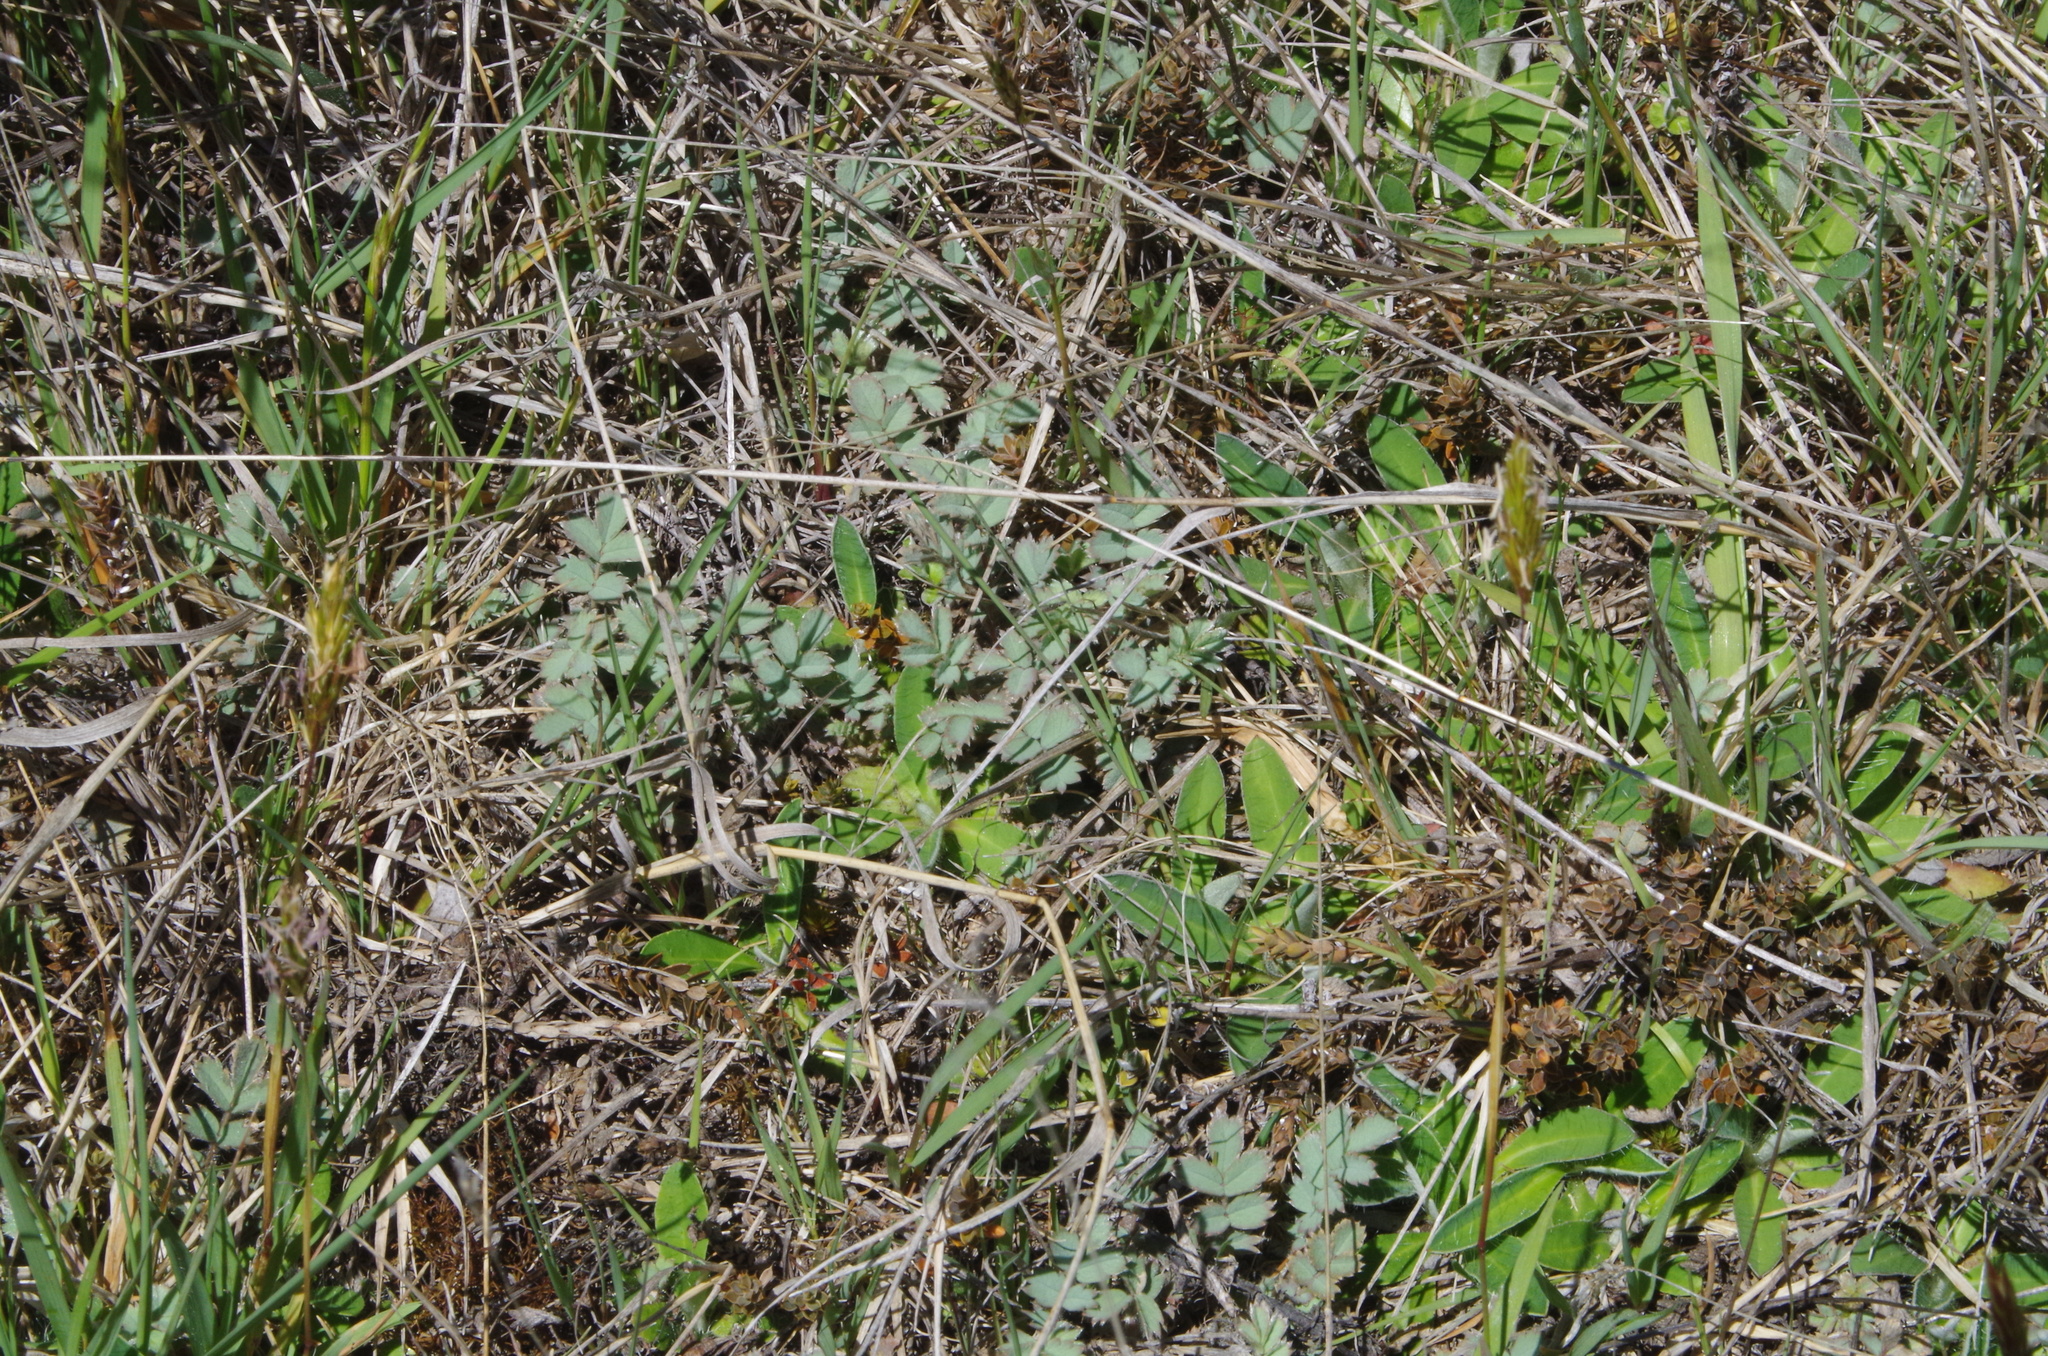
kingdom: Plantae
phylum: Tracheophyta
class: Magnoliopsida
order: Rosales
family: Rosaceae
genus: Acaena
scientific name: Acaena caesiiglauca
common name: Glaucous pirri-pirri-bur
